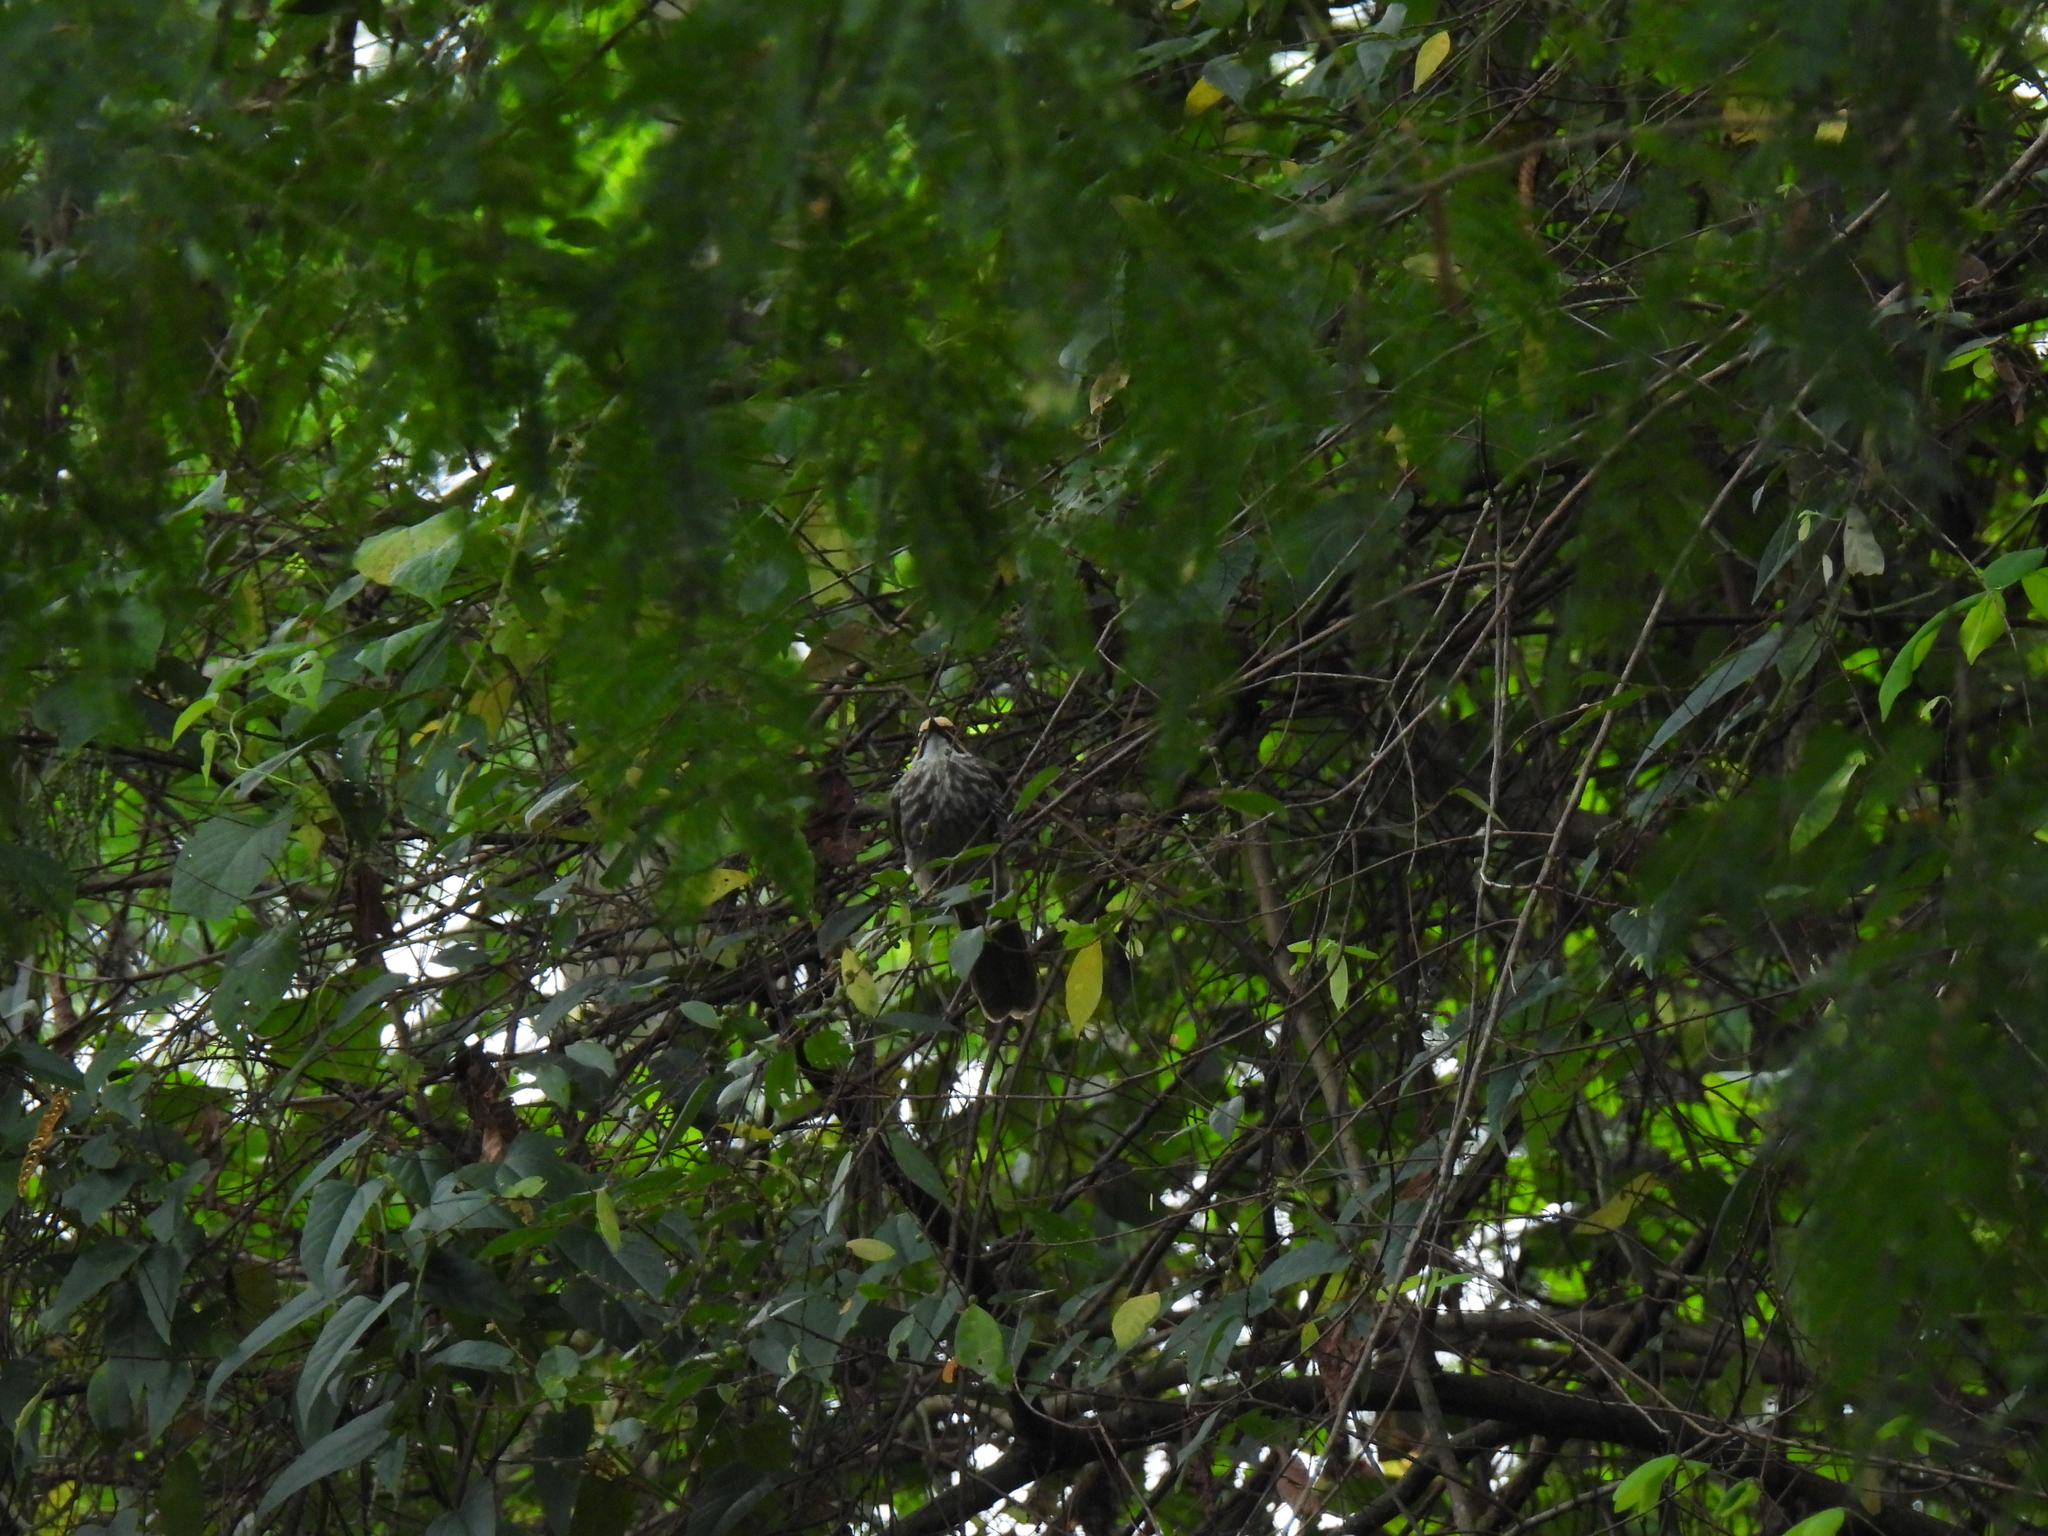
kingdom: Animalia
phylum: Chordata
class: Aves
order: Passeriformes
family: Pycnonotidae
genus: Pycnonotus
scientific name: Pycnonotus zeylanicus
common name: Straw-headed bulbul
